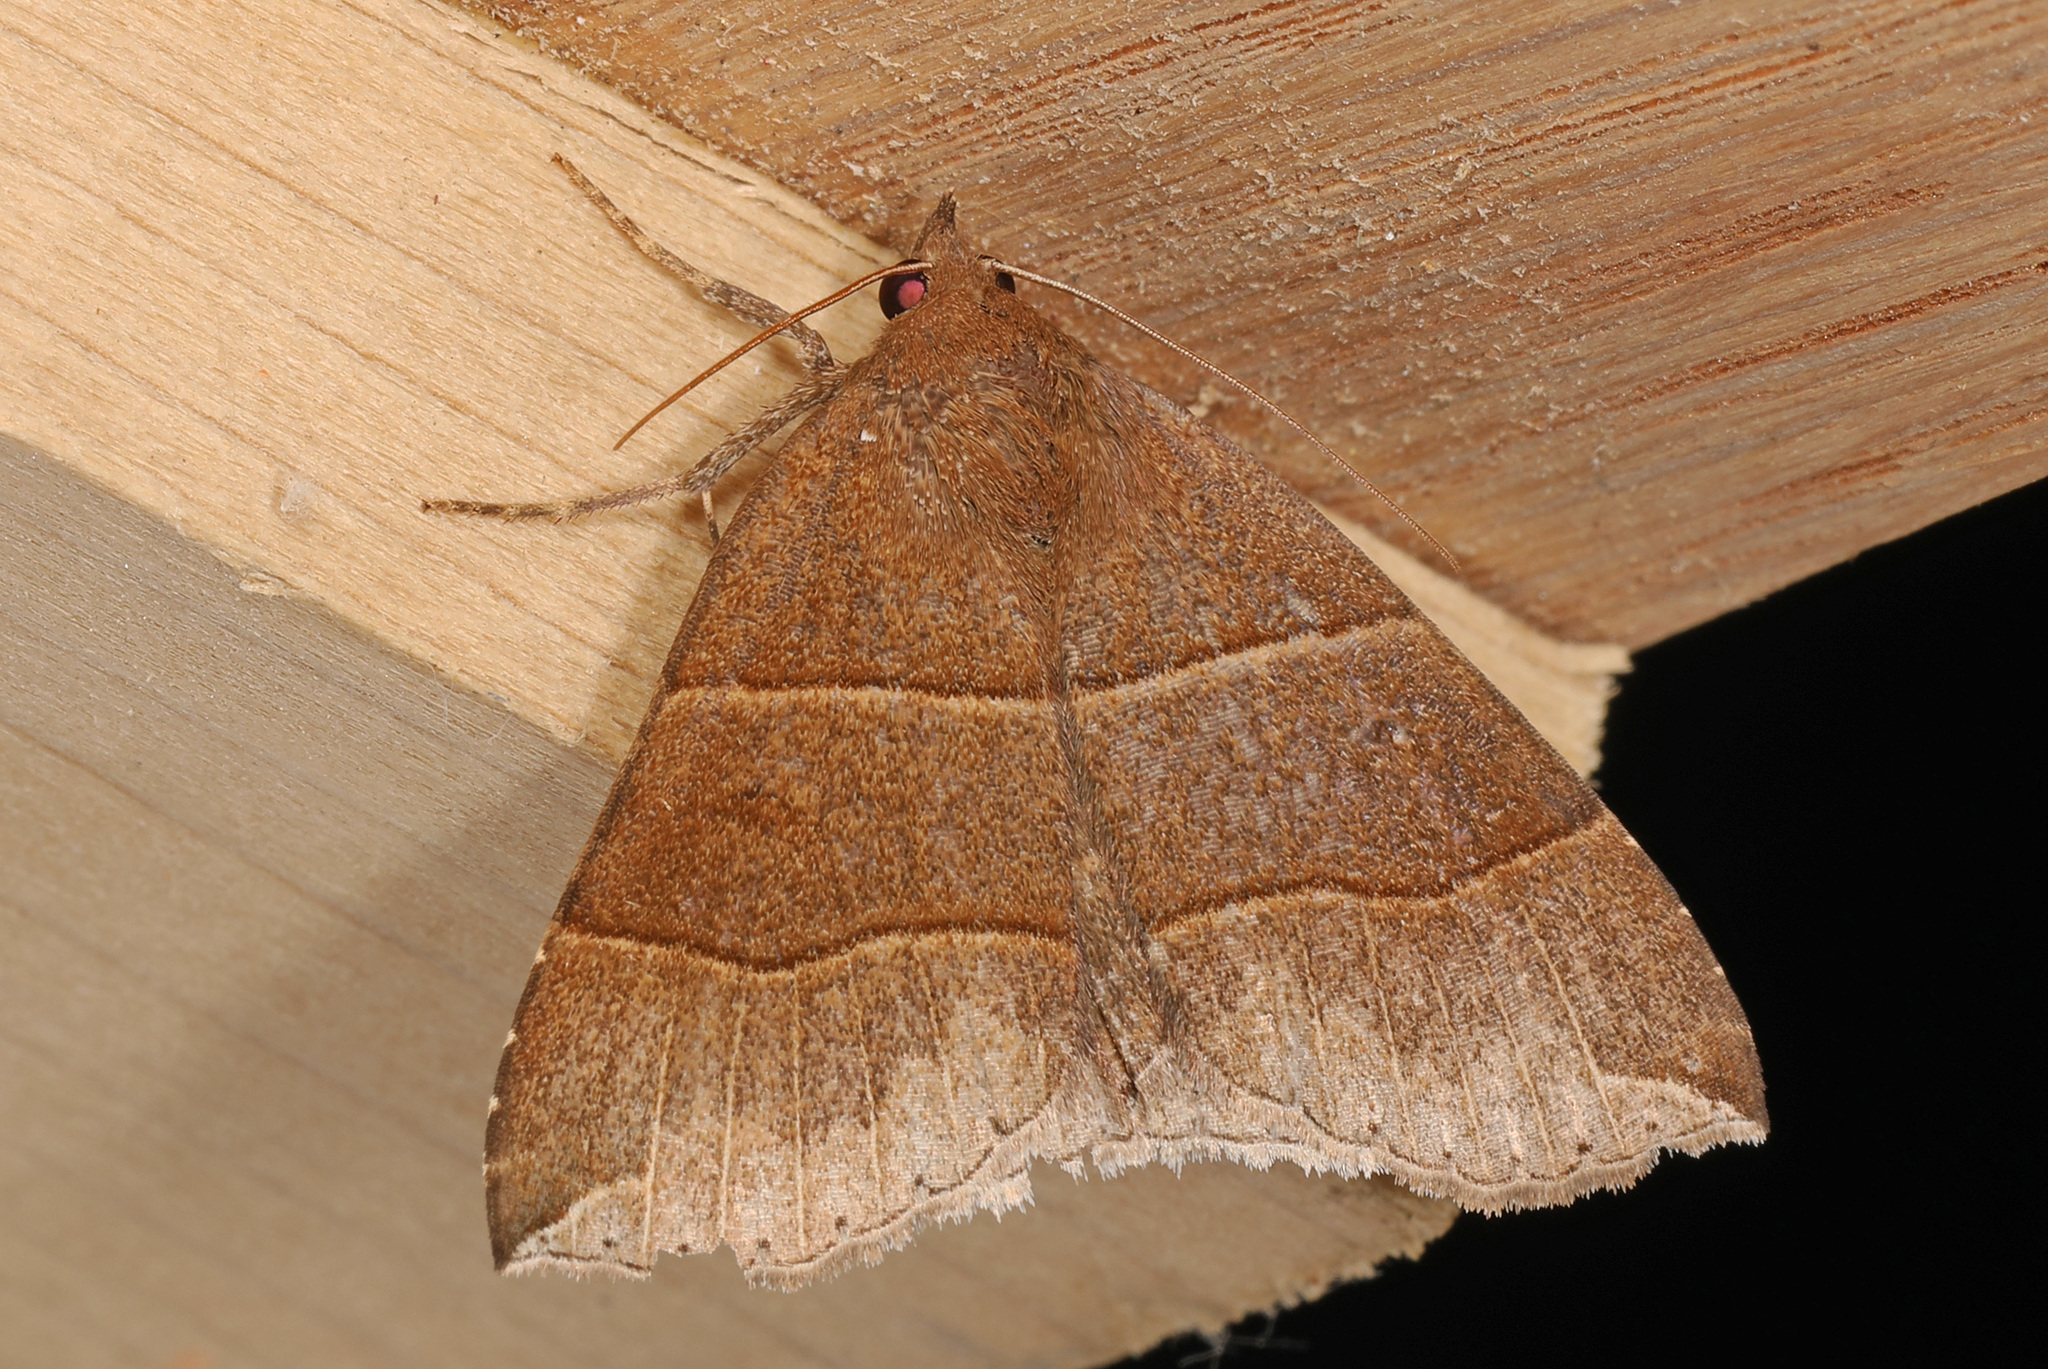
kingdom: Animalia
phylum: Arthropoda
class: Insecta
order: Lepidoptera
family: Erebidae
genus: Parallelia
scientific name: Parallelia bistriaris
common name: Maple looper moth
